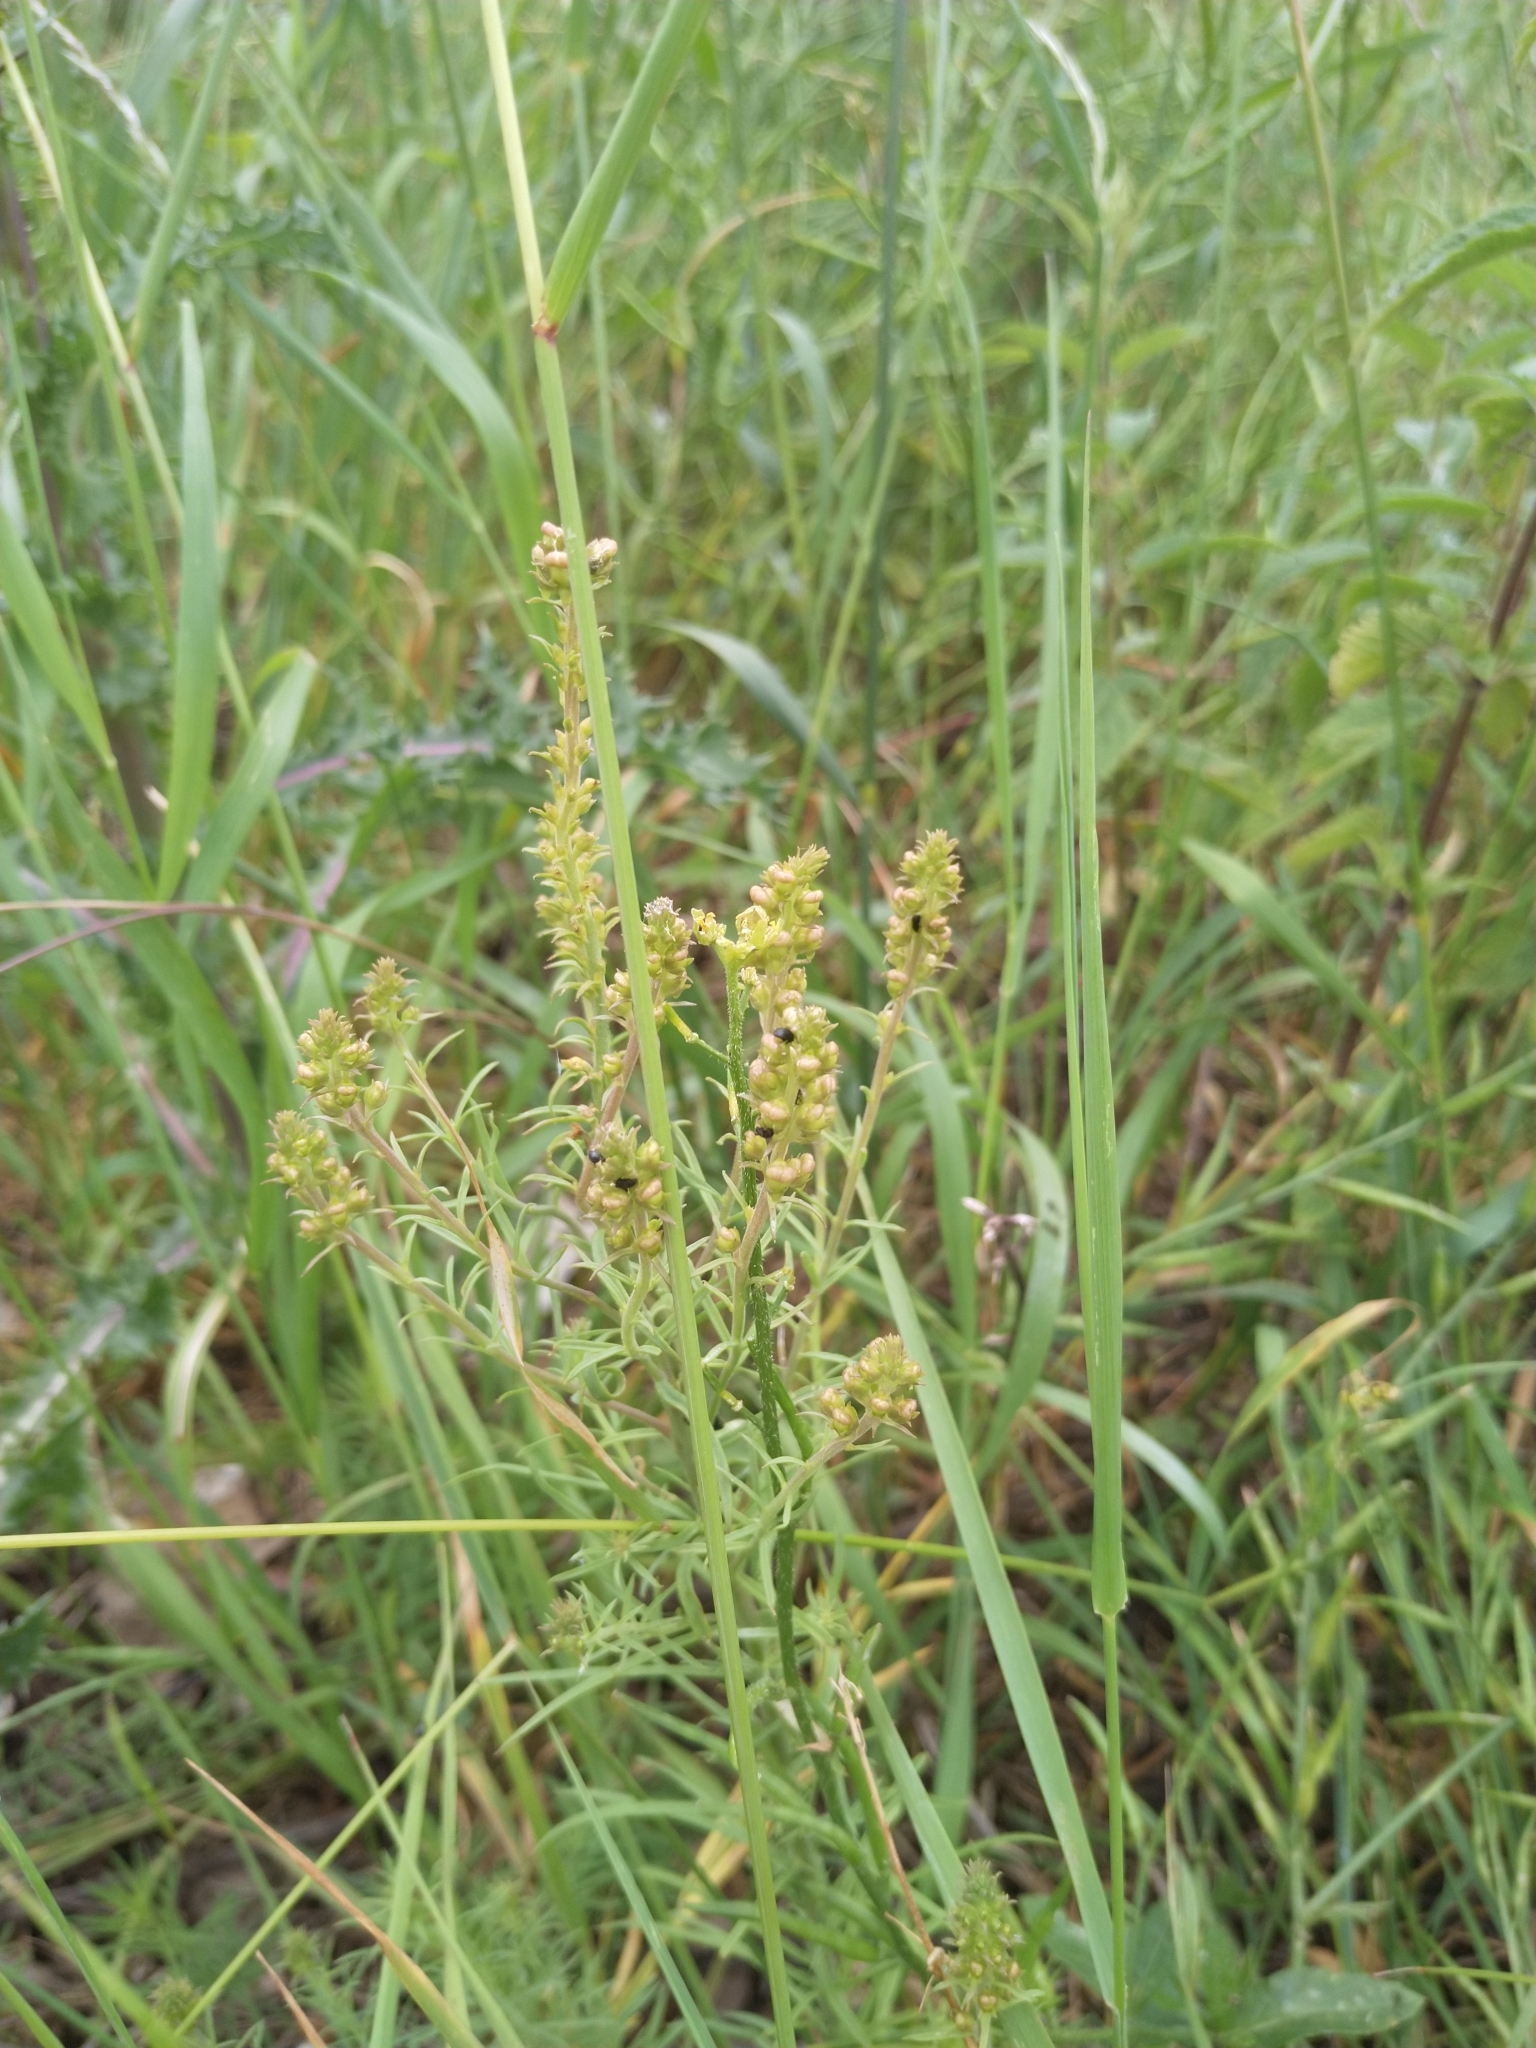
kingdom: Plantae
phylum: Tracheophyta
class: Magnoliopsida
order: Brassicales
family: Resedaceae
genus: Reseda
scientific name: Reseda luteola
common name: Weld
